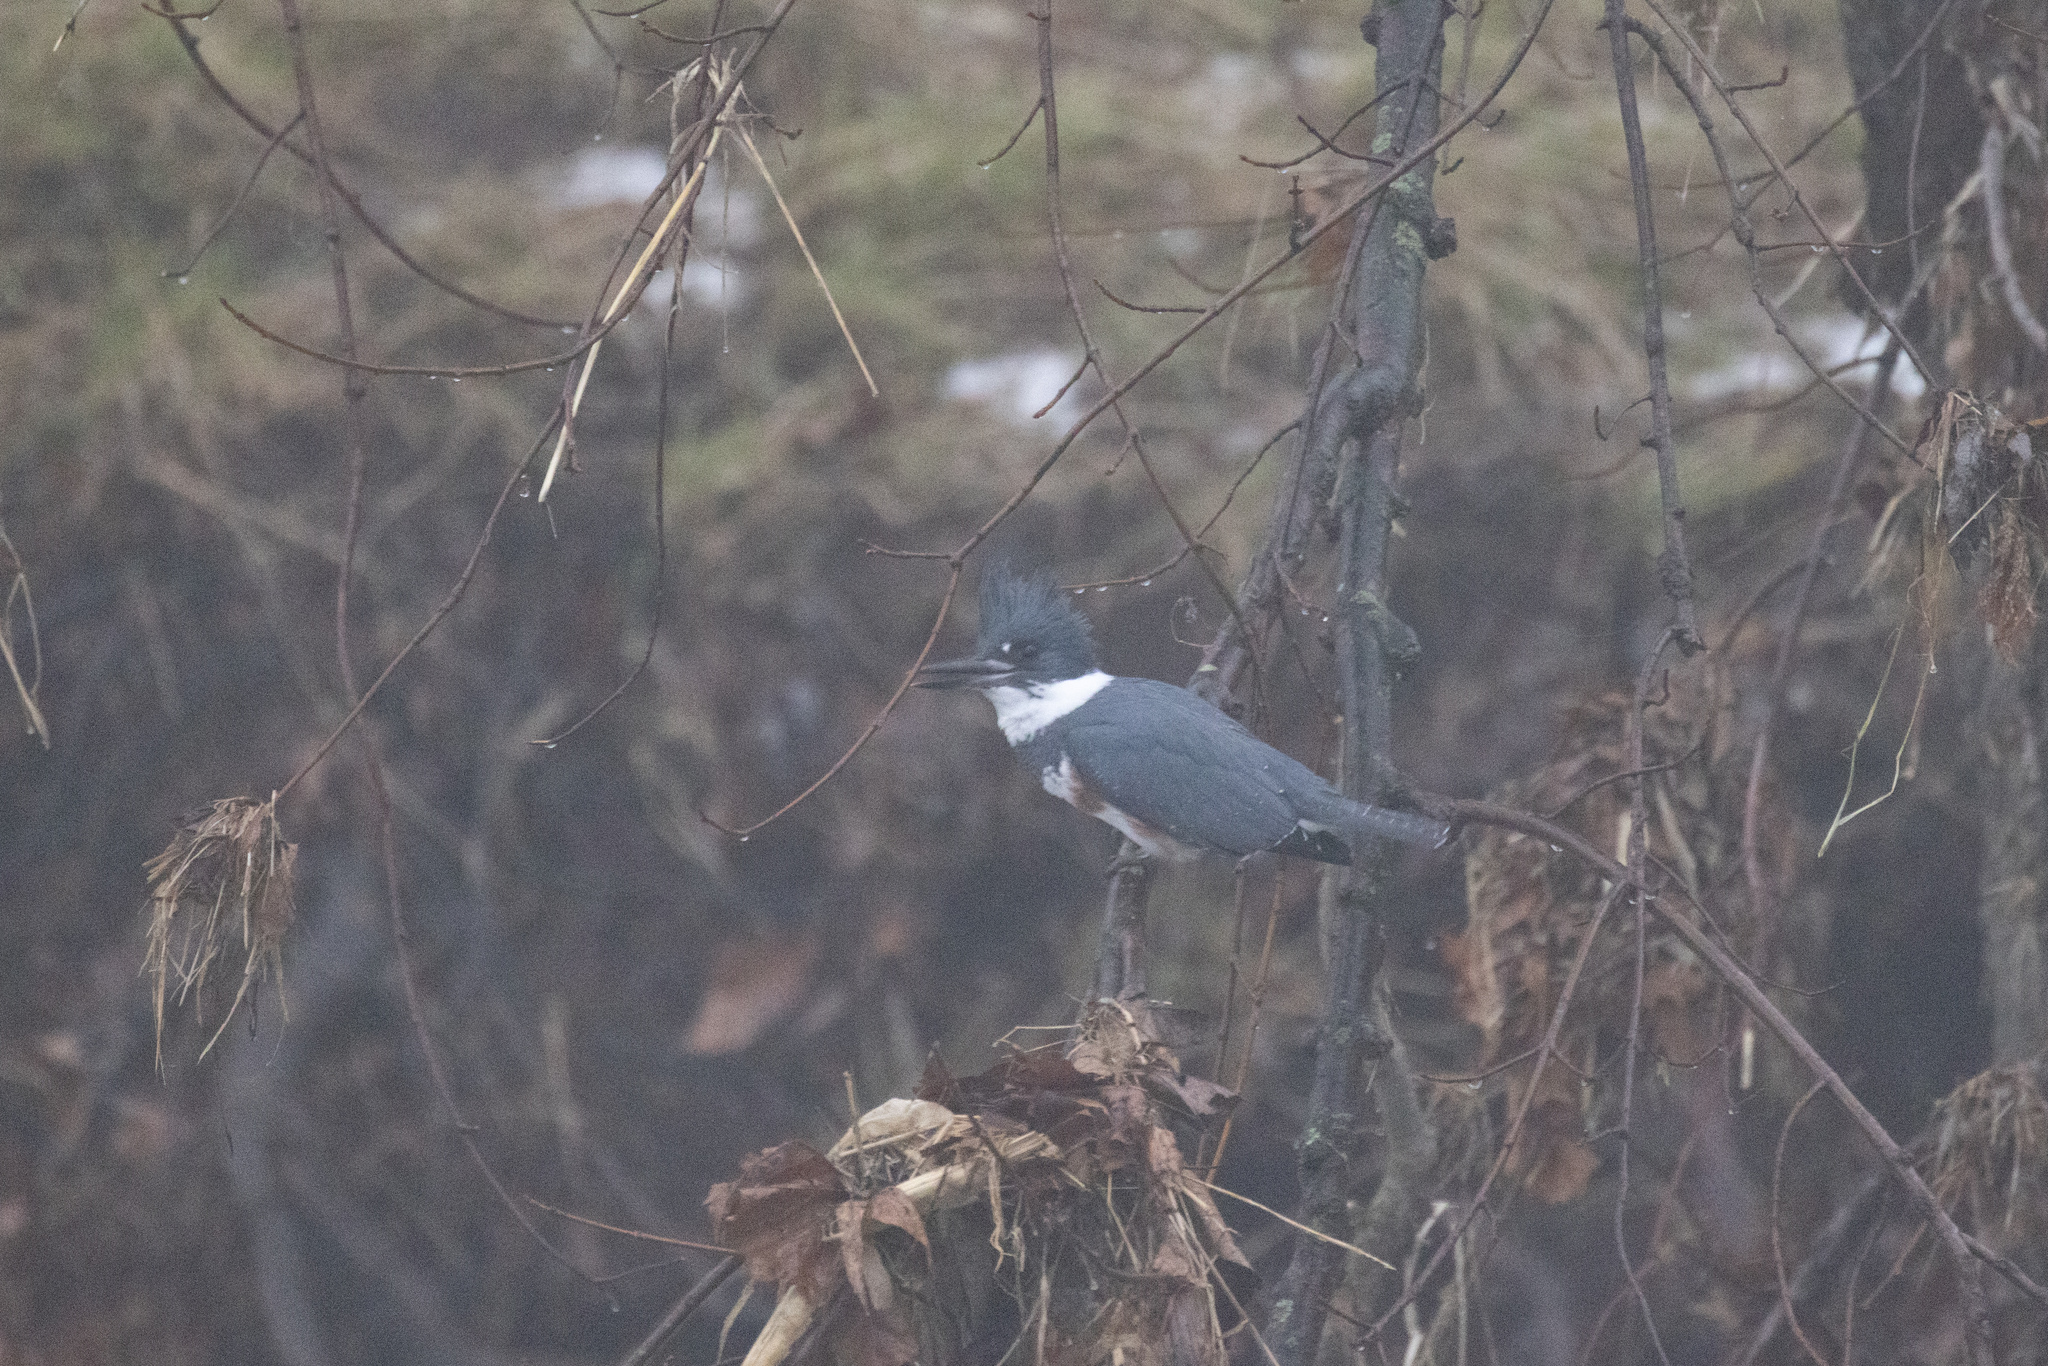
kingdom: Animalia
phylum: Chordata
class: Aves
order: Coraciiformes
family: Alcedinidae
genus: Megaceryle
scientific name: Megaceryle alcyon
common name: Belted kingfisher
